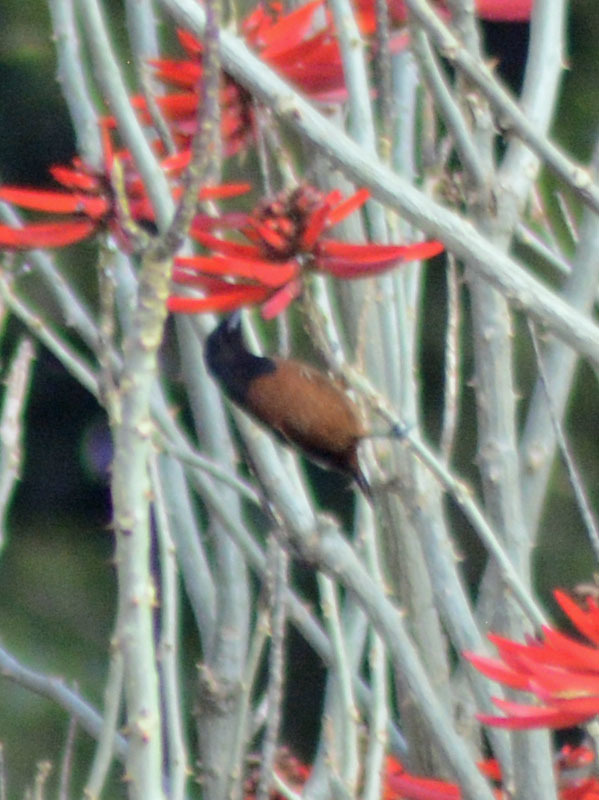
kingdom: Animalia
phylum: Chordata
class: Aves
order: Passeriformes
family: Icteridae
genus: Icterus
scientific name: Icterus spurius
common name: Orchard oriole
